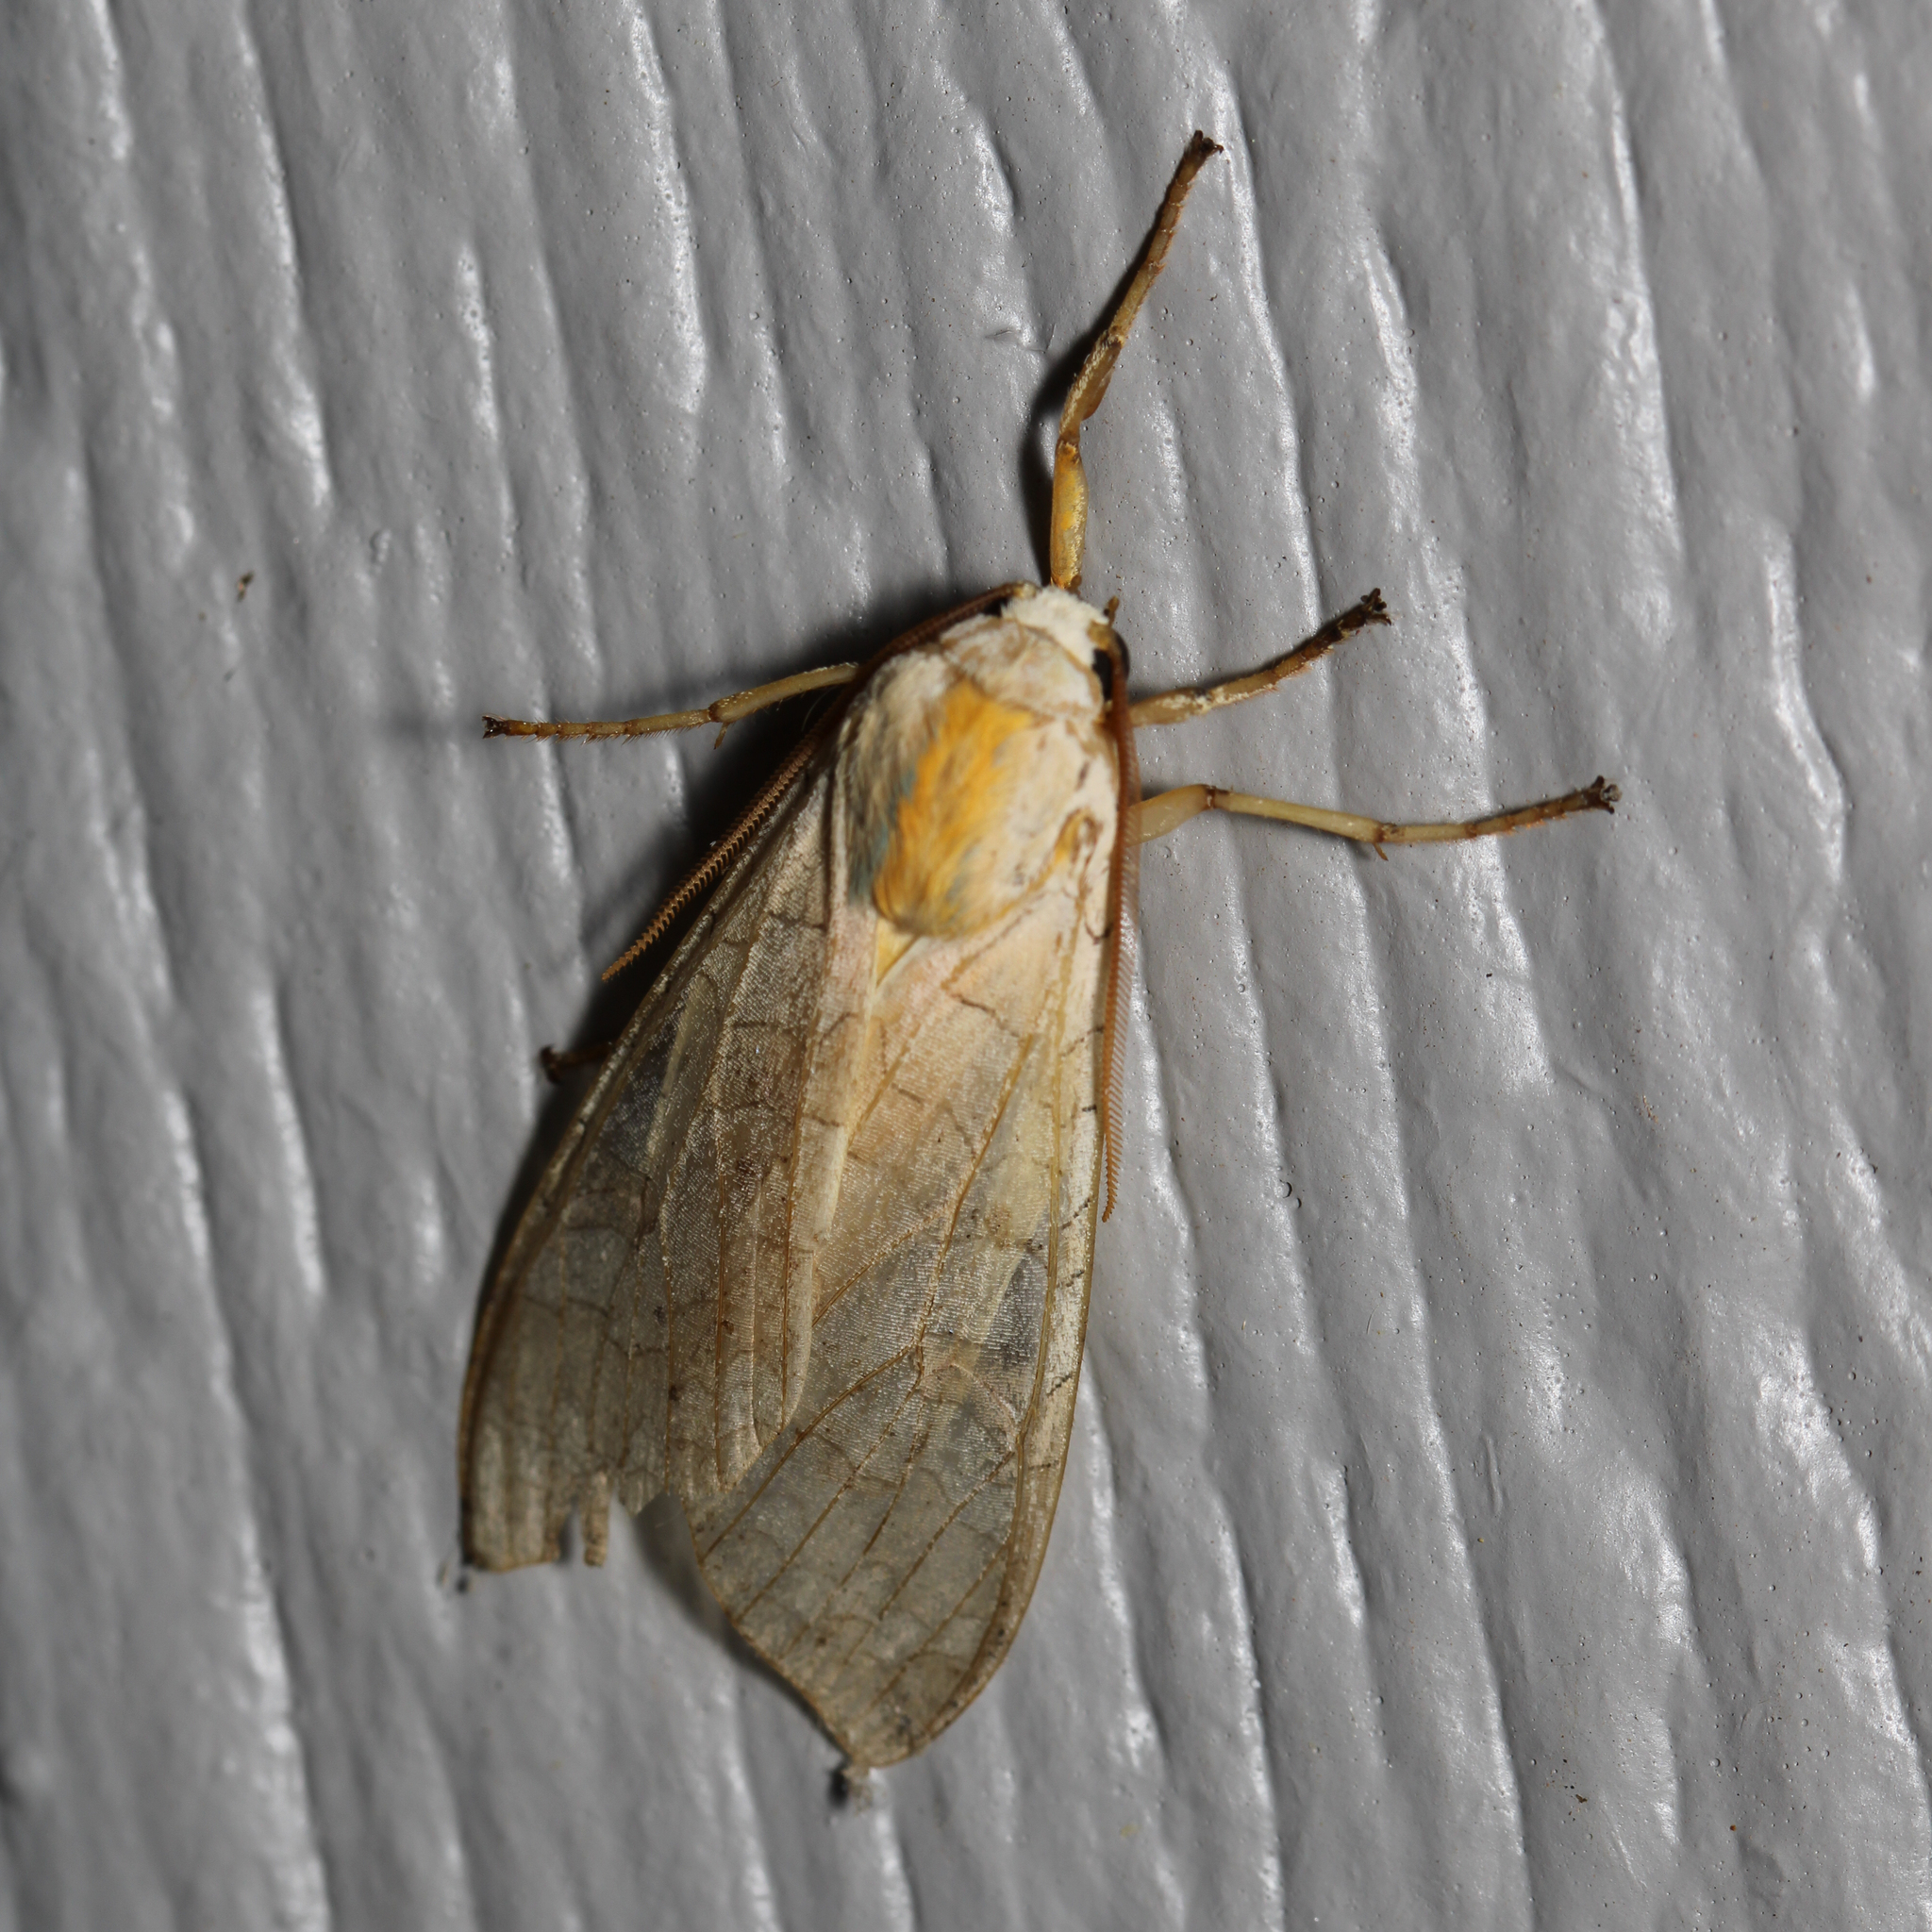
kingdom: Animalia
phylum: Arthropoda
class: Insecta
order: Lepidoptera
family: Erebidae
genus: Halysidota
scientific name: Halysidota
